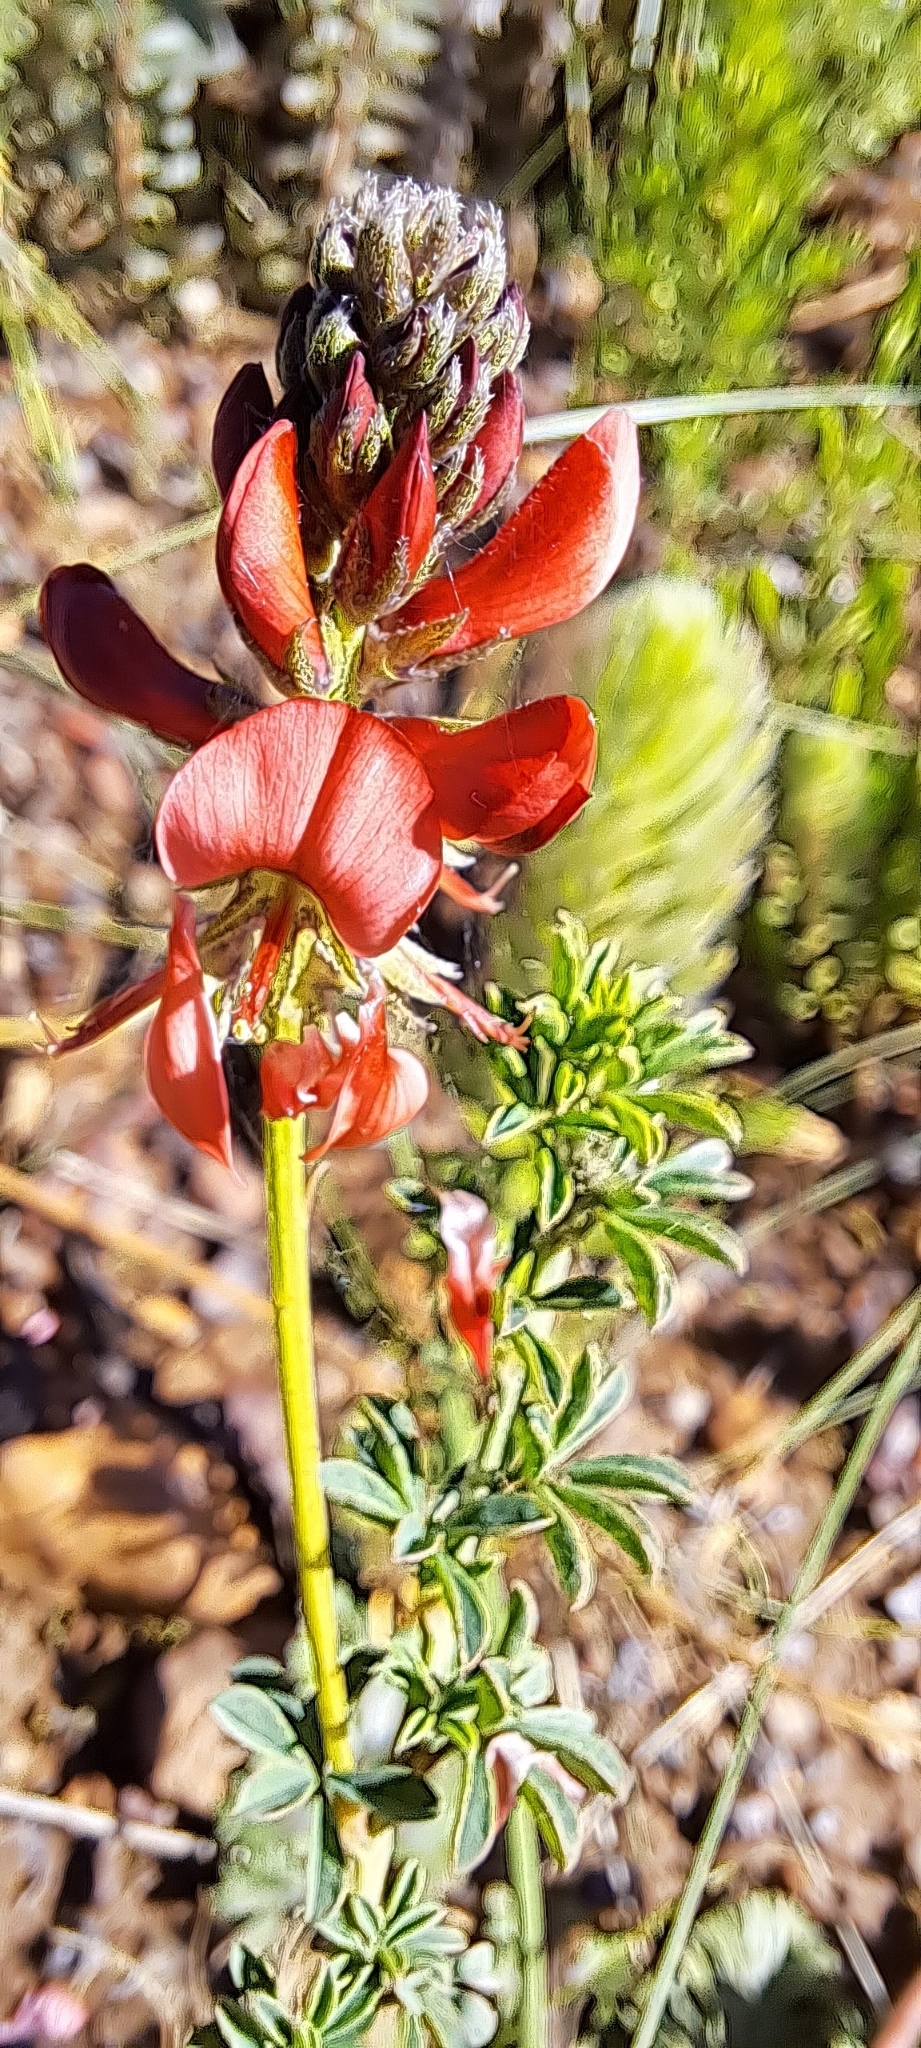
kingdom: Plantae
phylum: Tracheophyta
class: Magnoliopsida
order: Fabales
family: Fabaceae
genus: Indigofera
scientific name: Indigofera digitata
